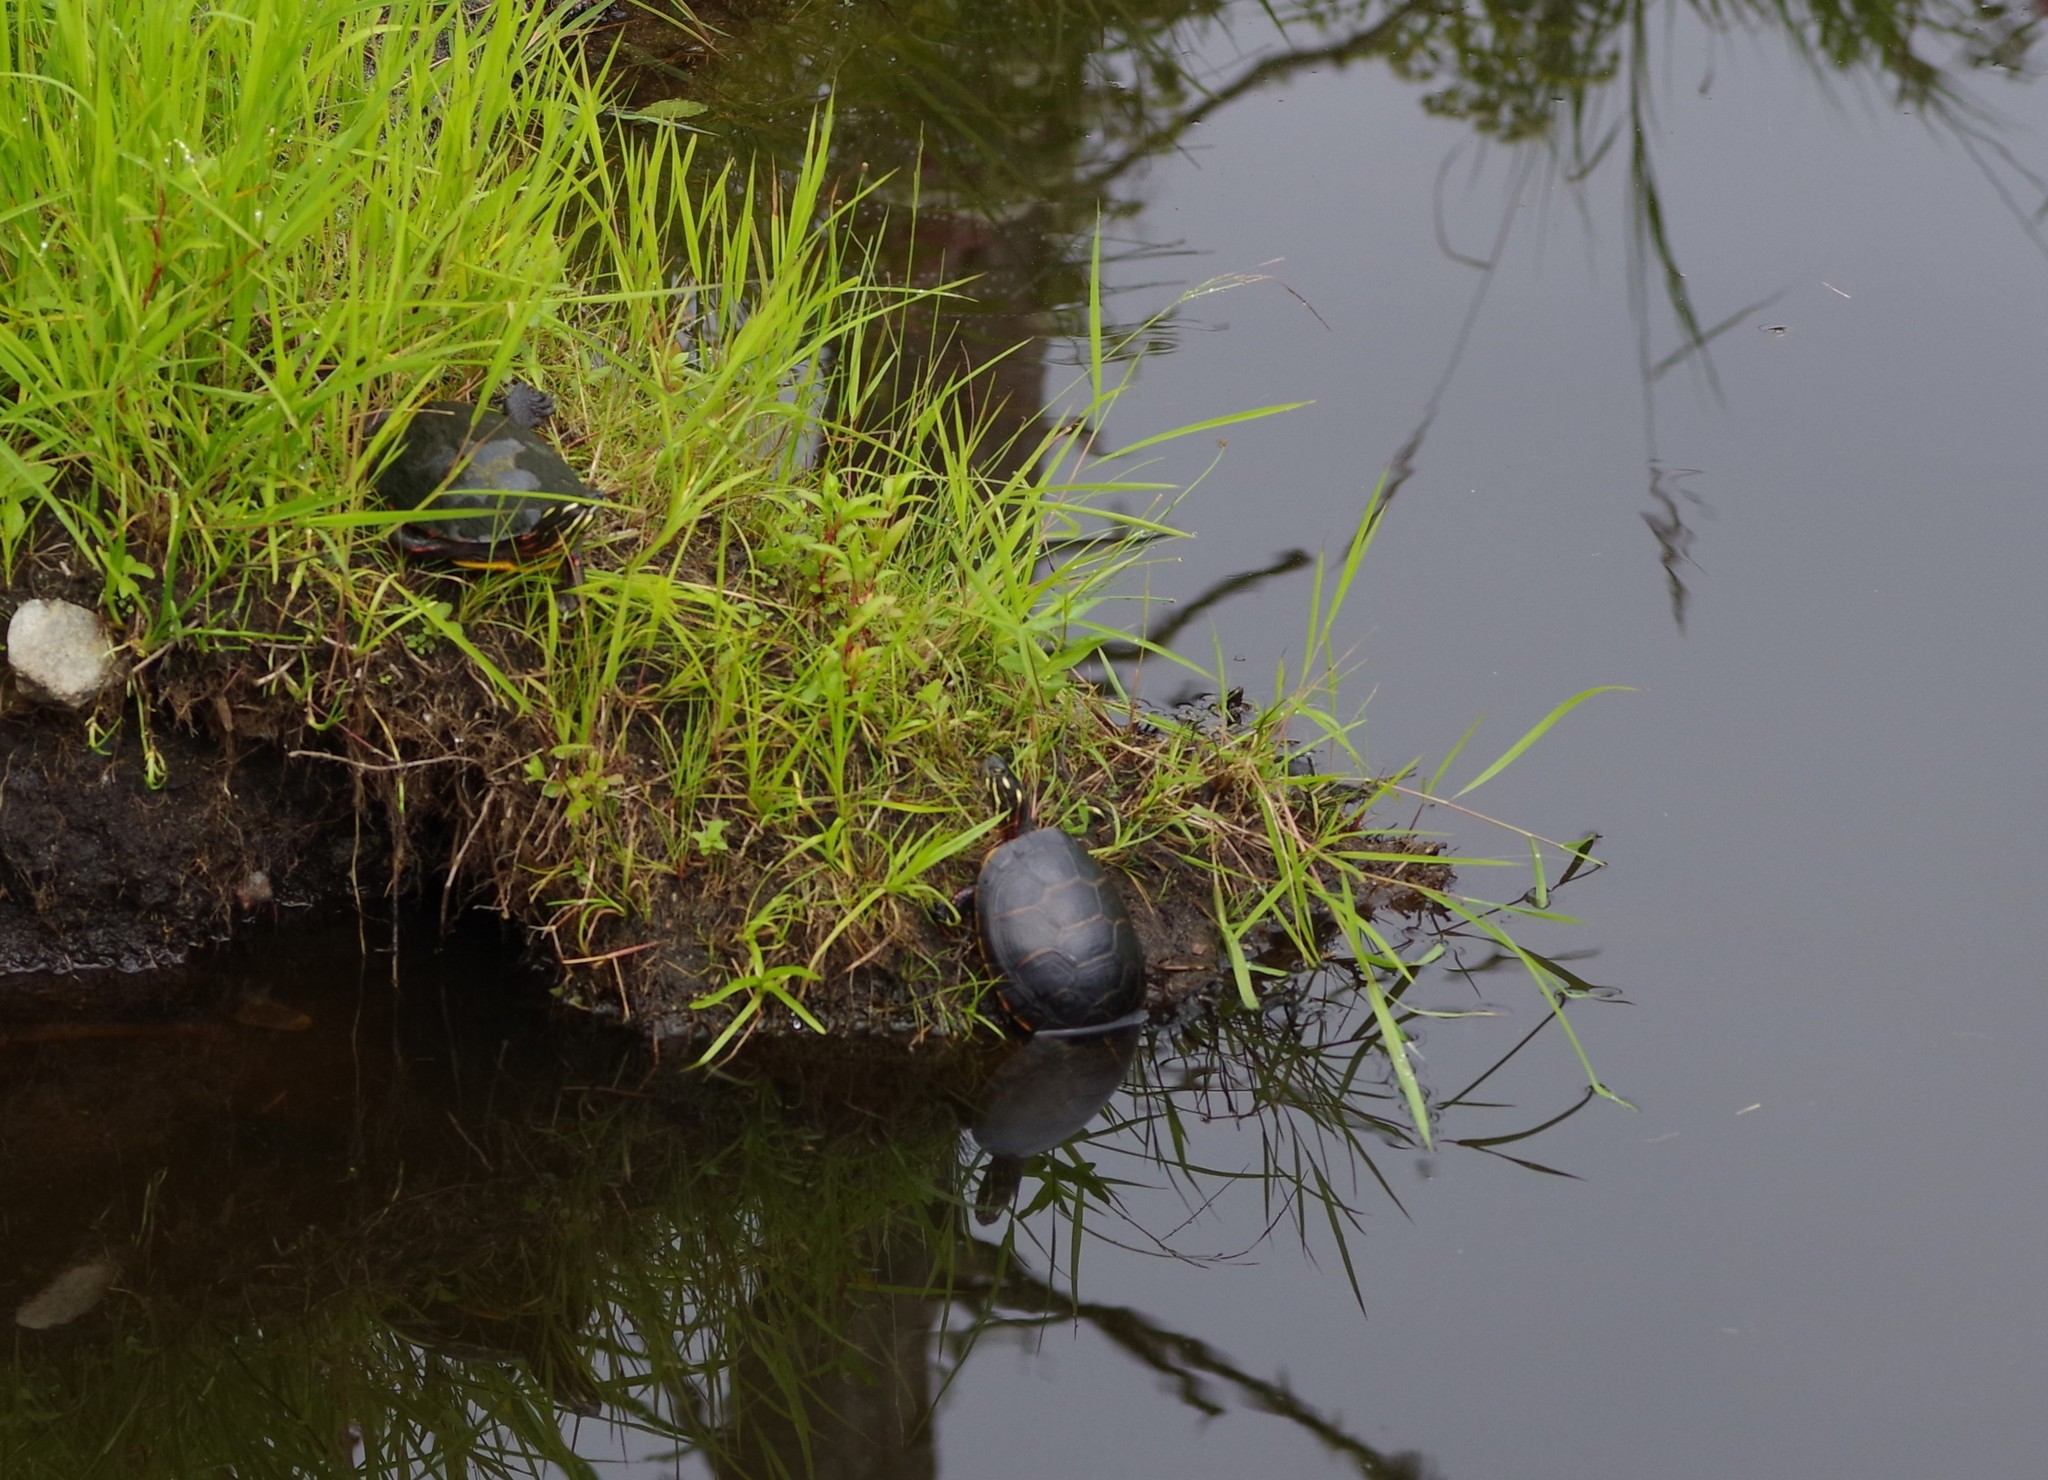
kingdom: Animalia
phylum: Chordata
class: Testudines
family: Emydidae
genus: Chrysemys
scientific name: Chrysemys picta
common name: Painted turtle
